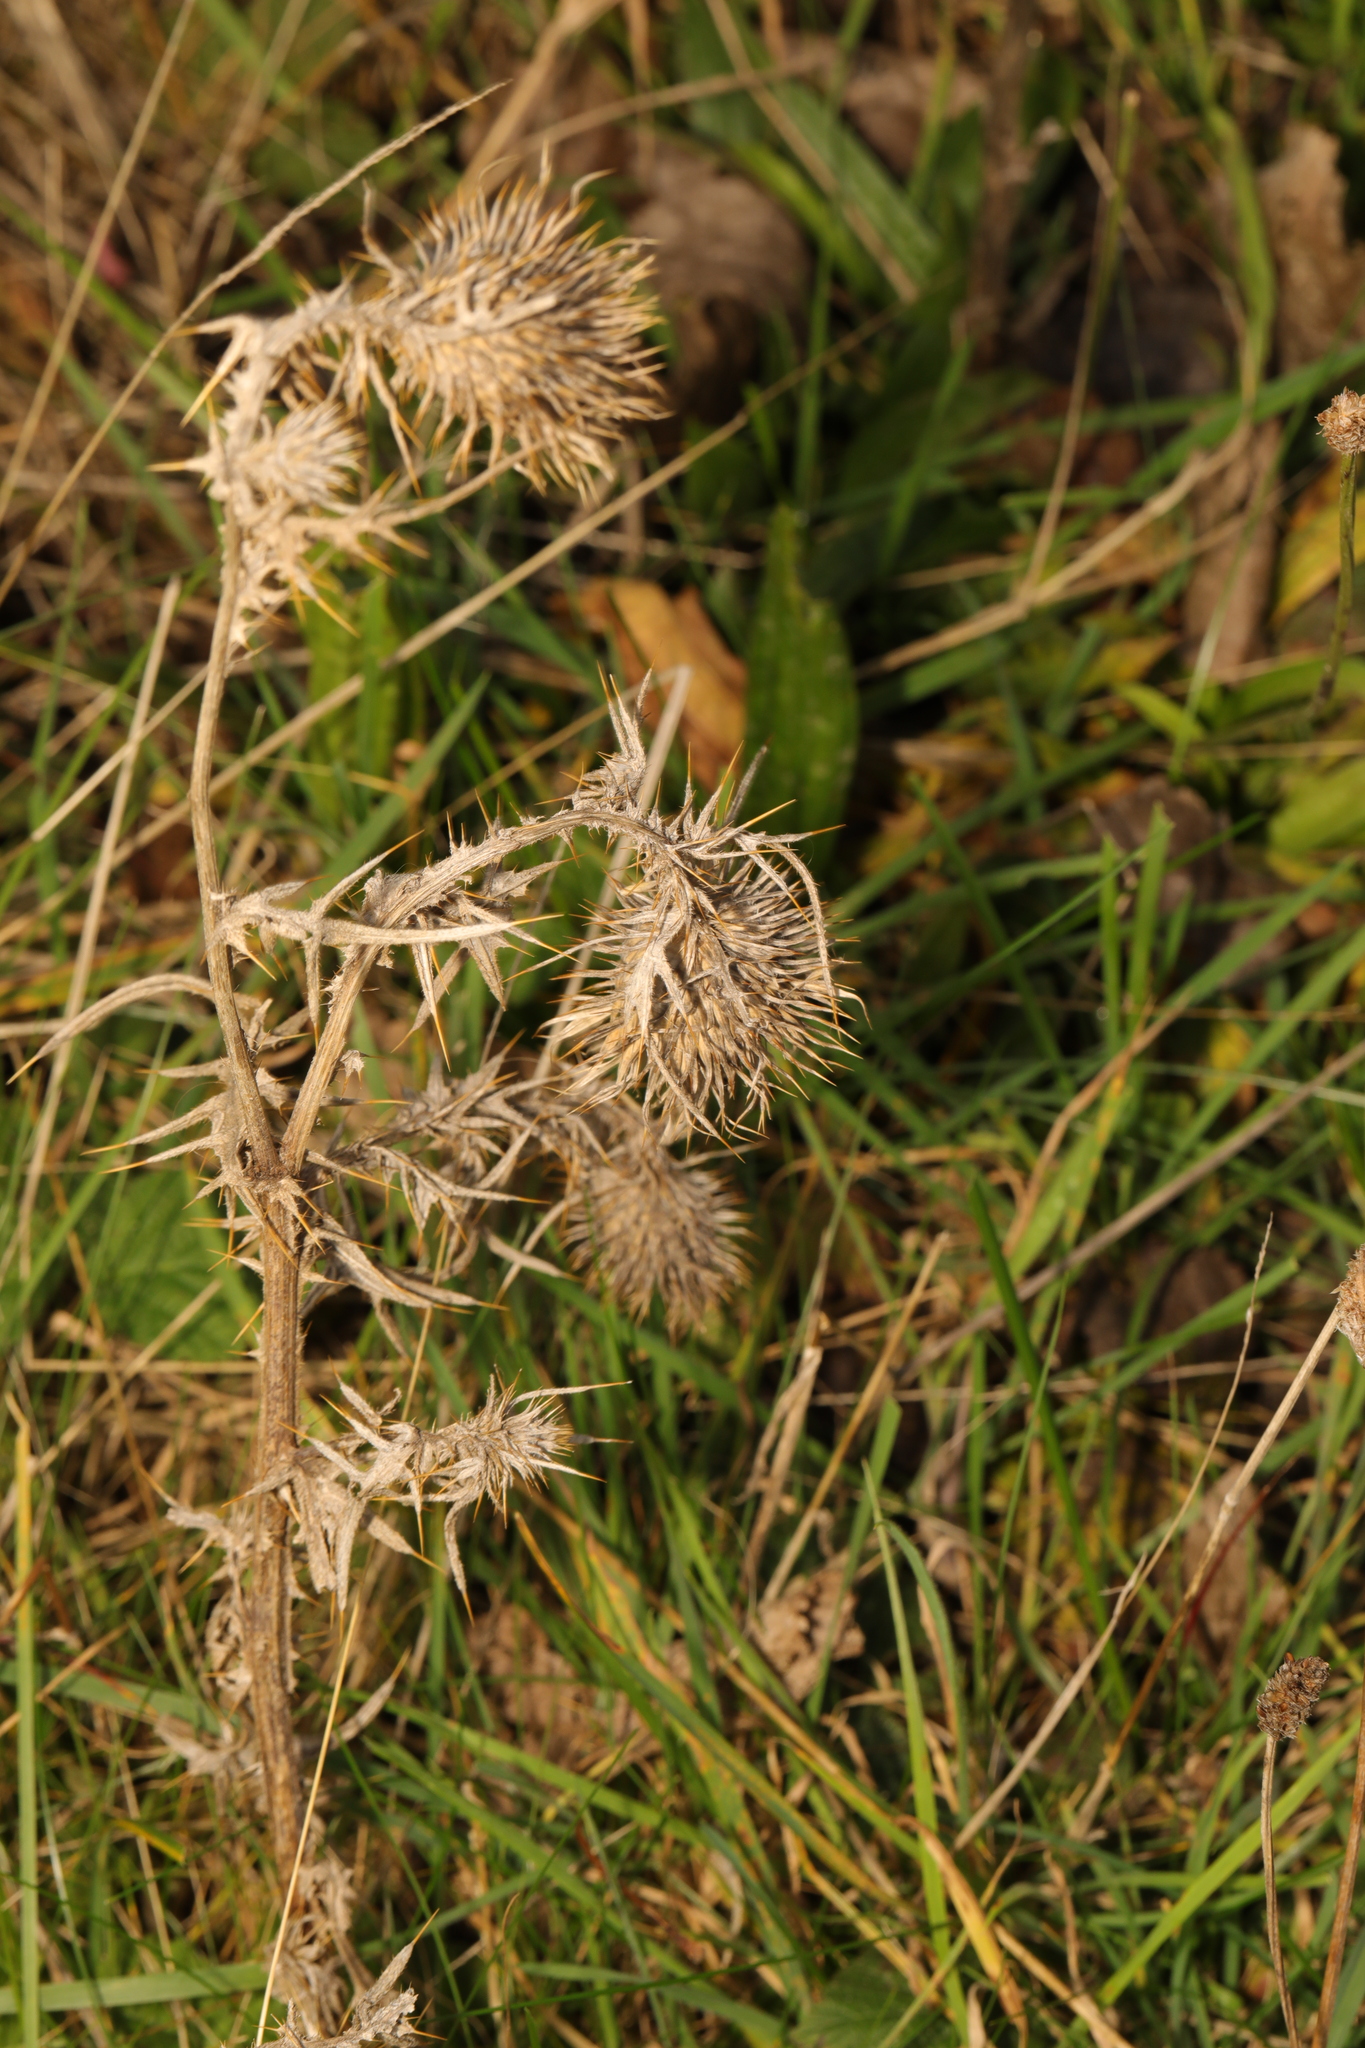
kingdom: Plantae
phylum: Tracheophyta
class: Magnoliopsida
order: Asterales
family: Asteraceae
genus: Cirsium
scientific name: Cirsium vulgare
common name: Bull thistle
